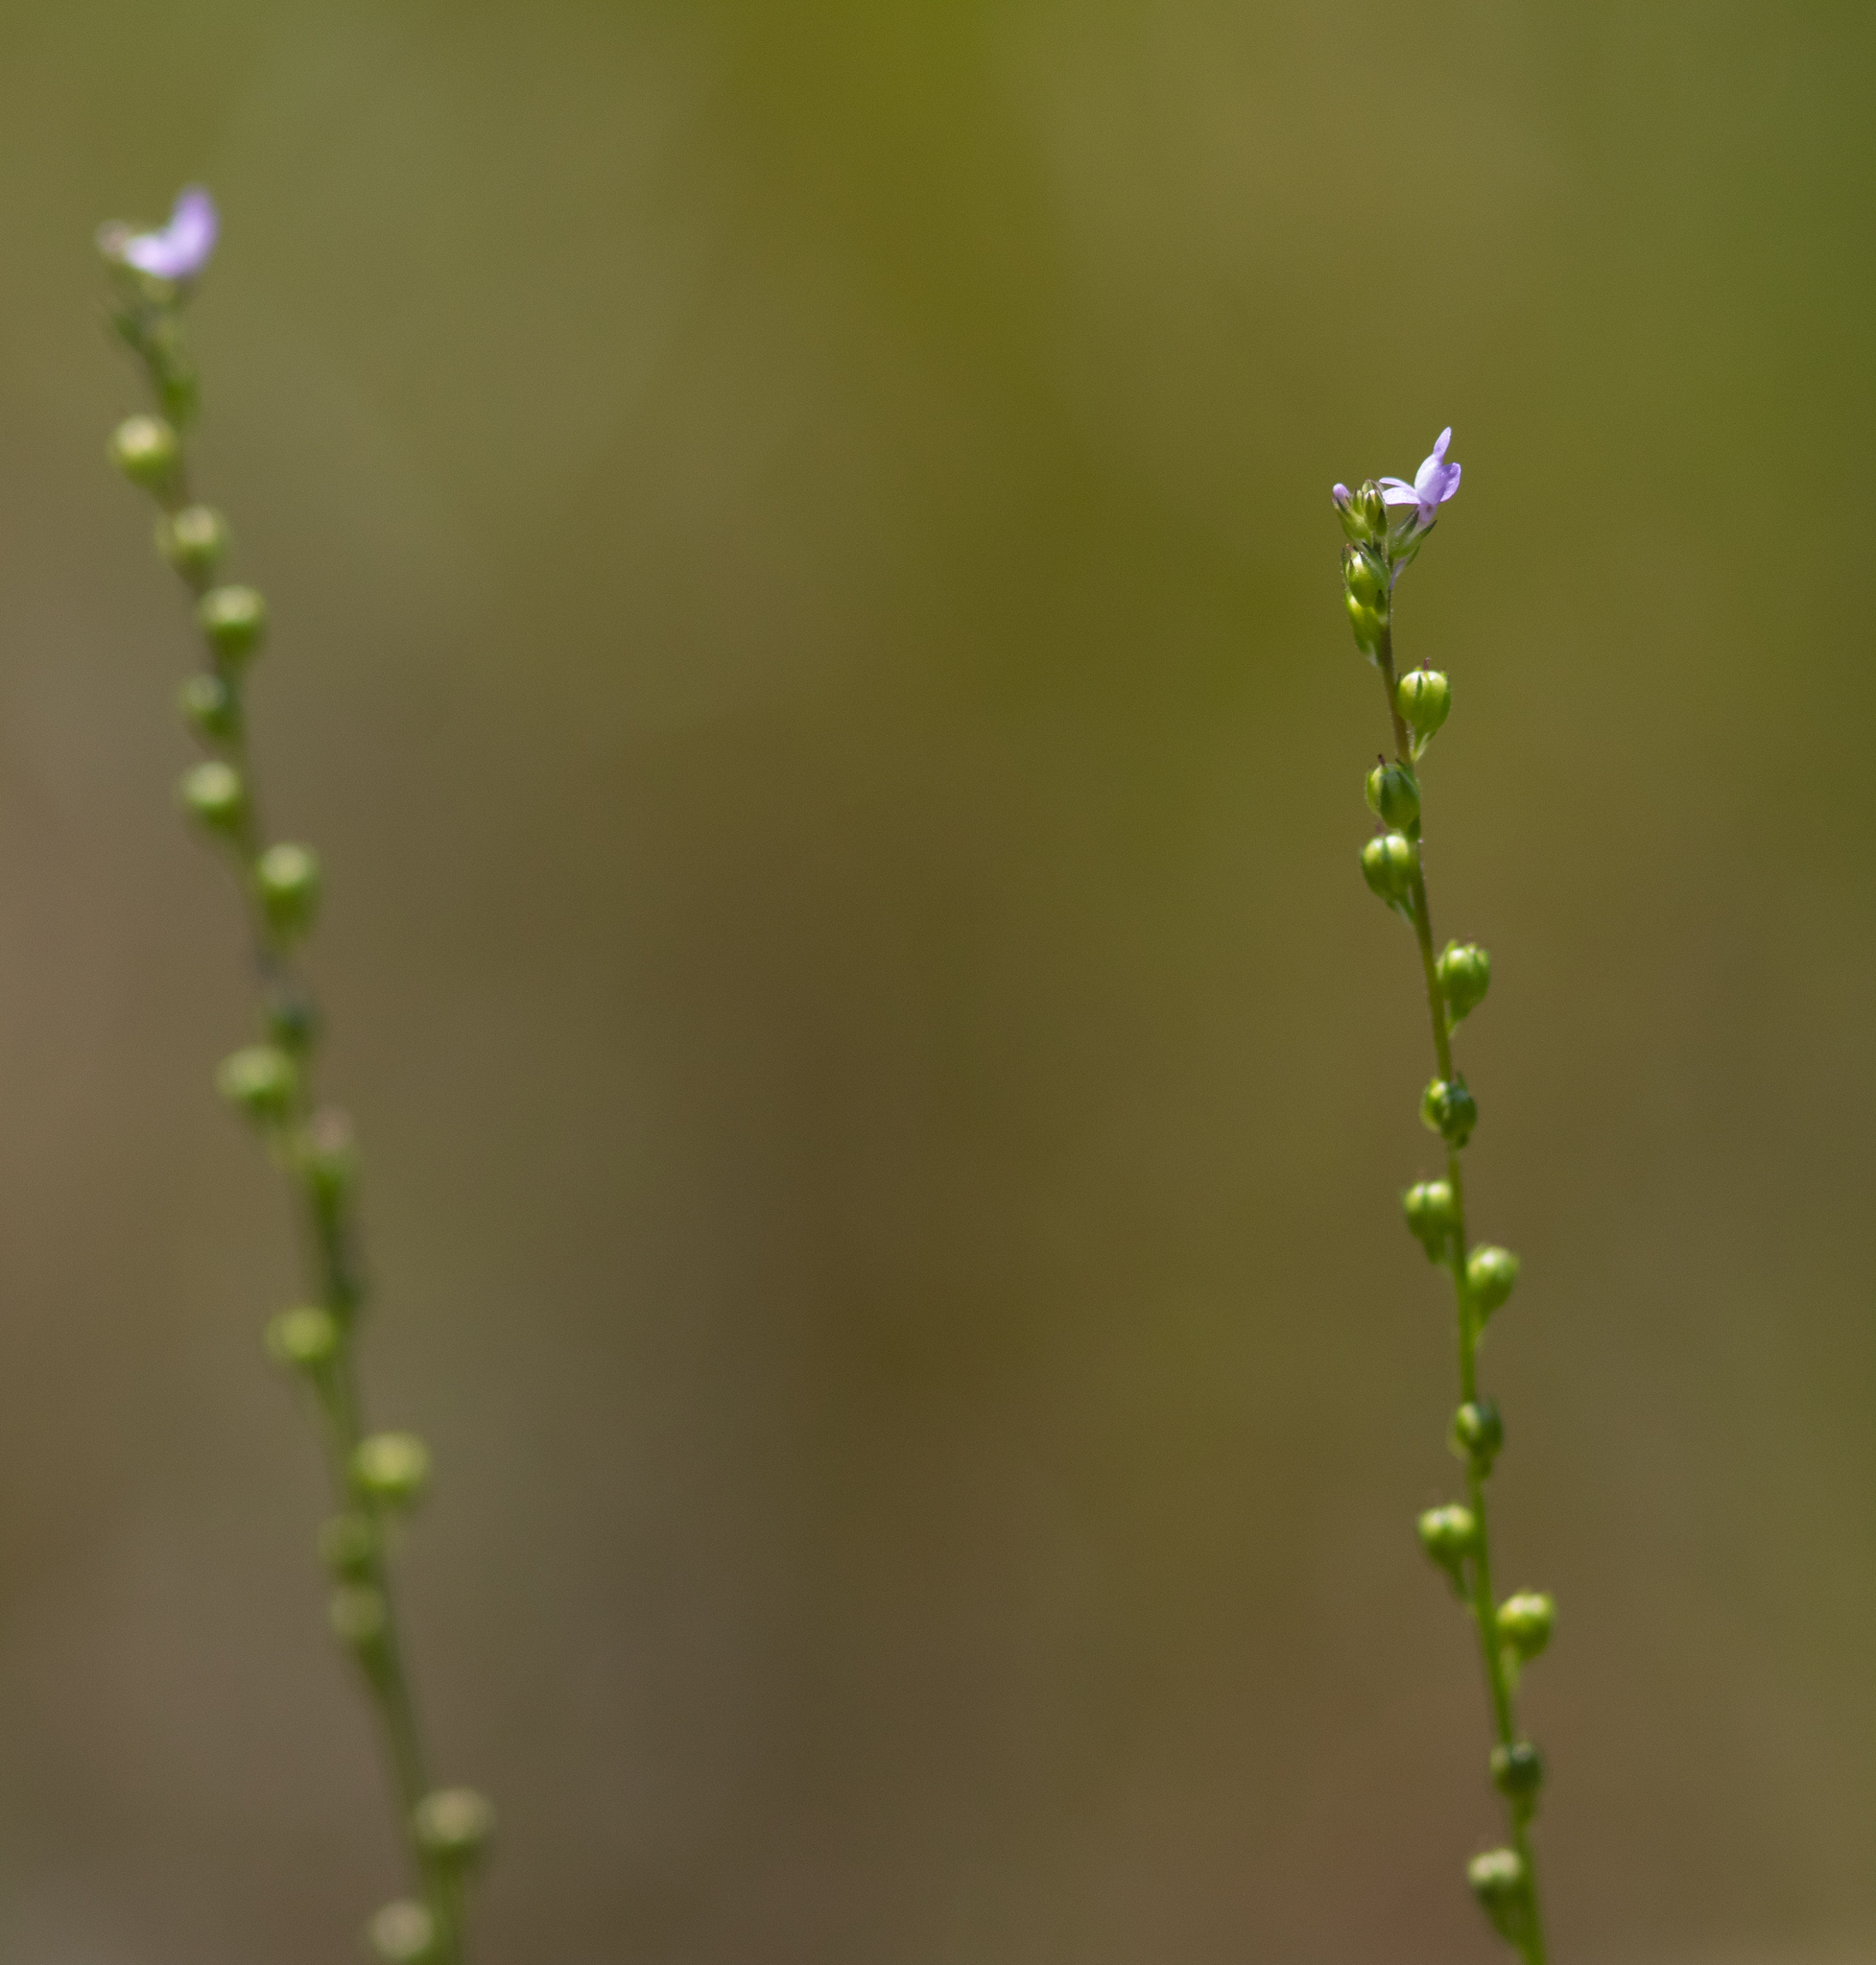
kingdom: Plantae
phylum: Tracheophyta
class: Magnoliopsida
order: Lamiales
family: Plantaginaceae
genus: Nuttallanthus
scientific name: Nuttallanthus canadensis
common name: Blue toadflax
